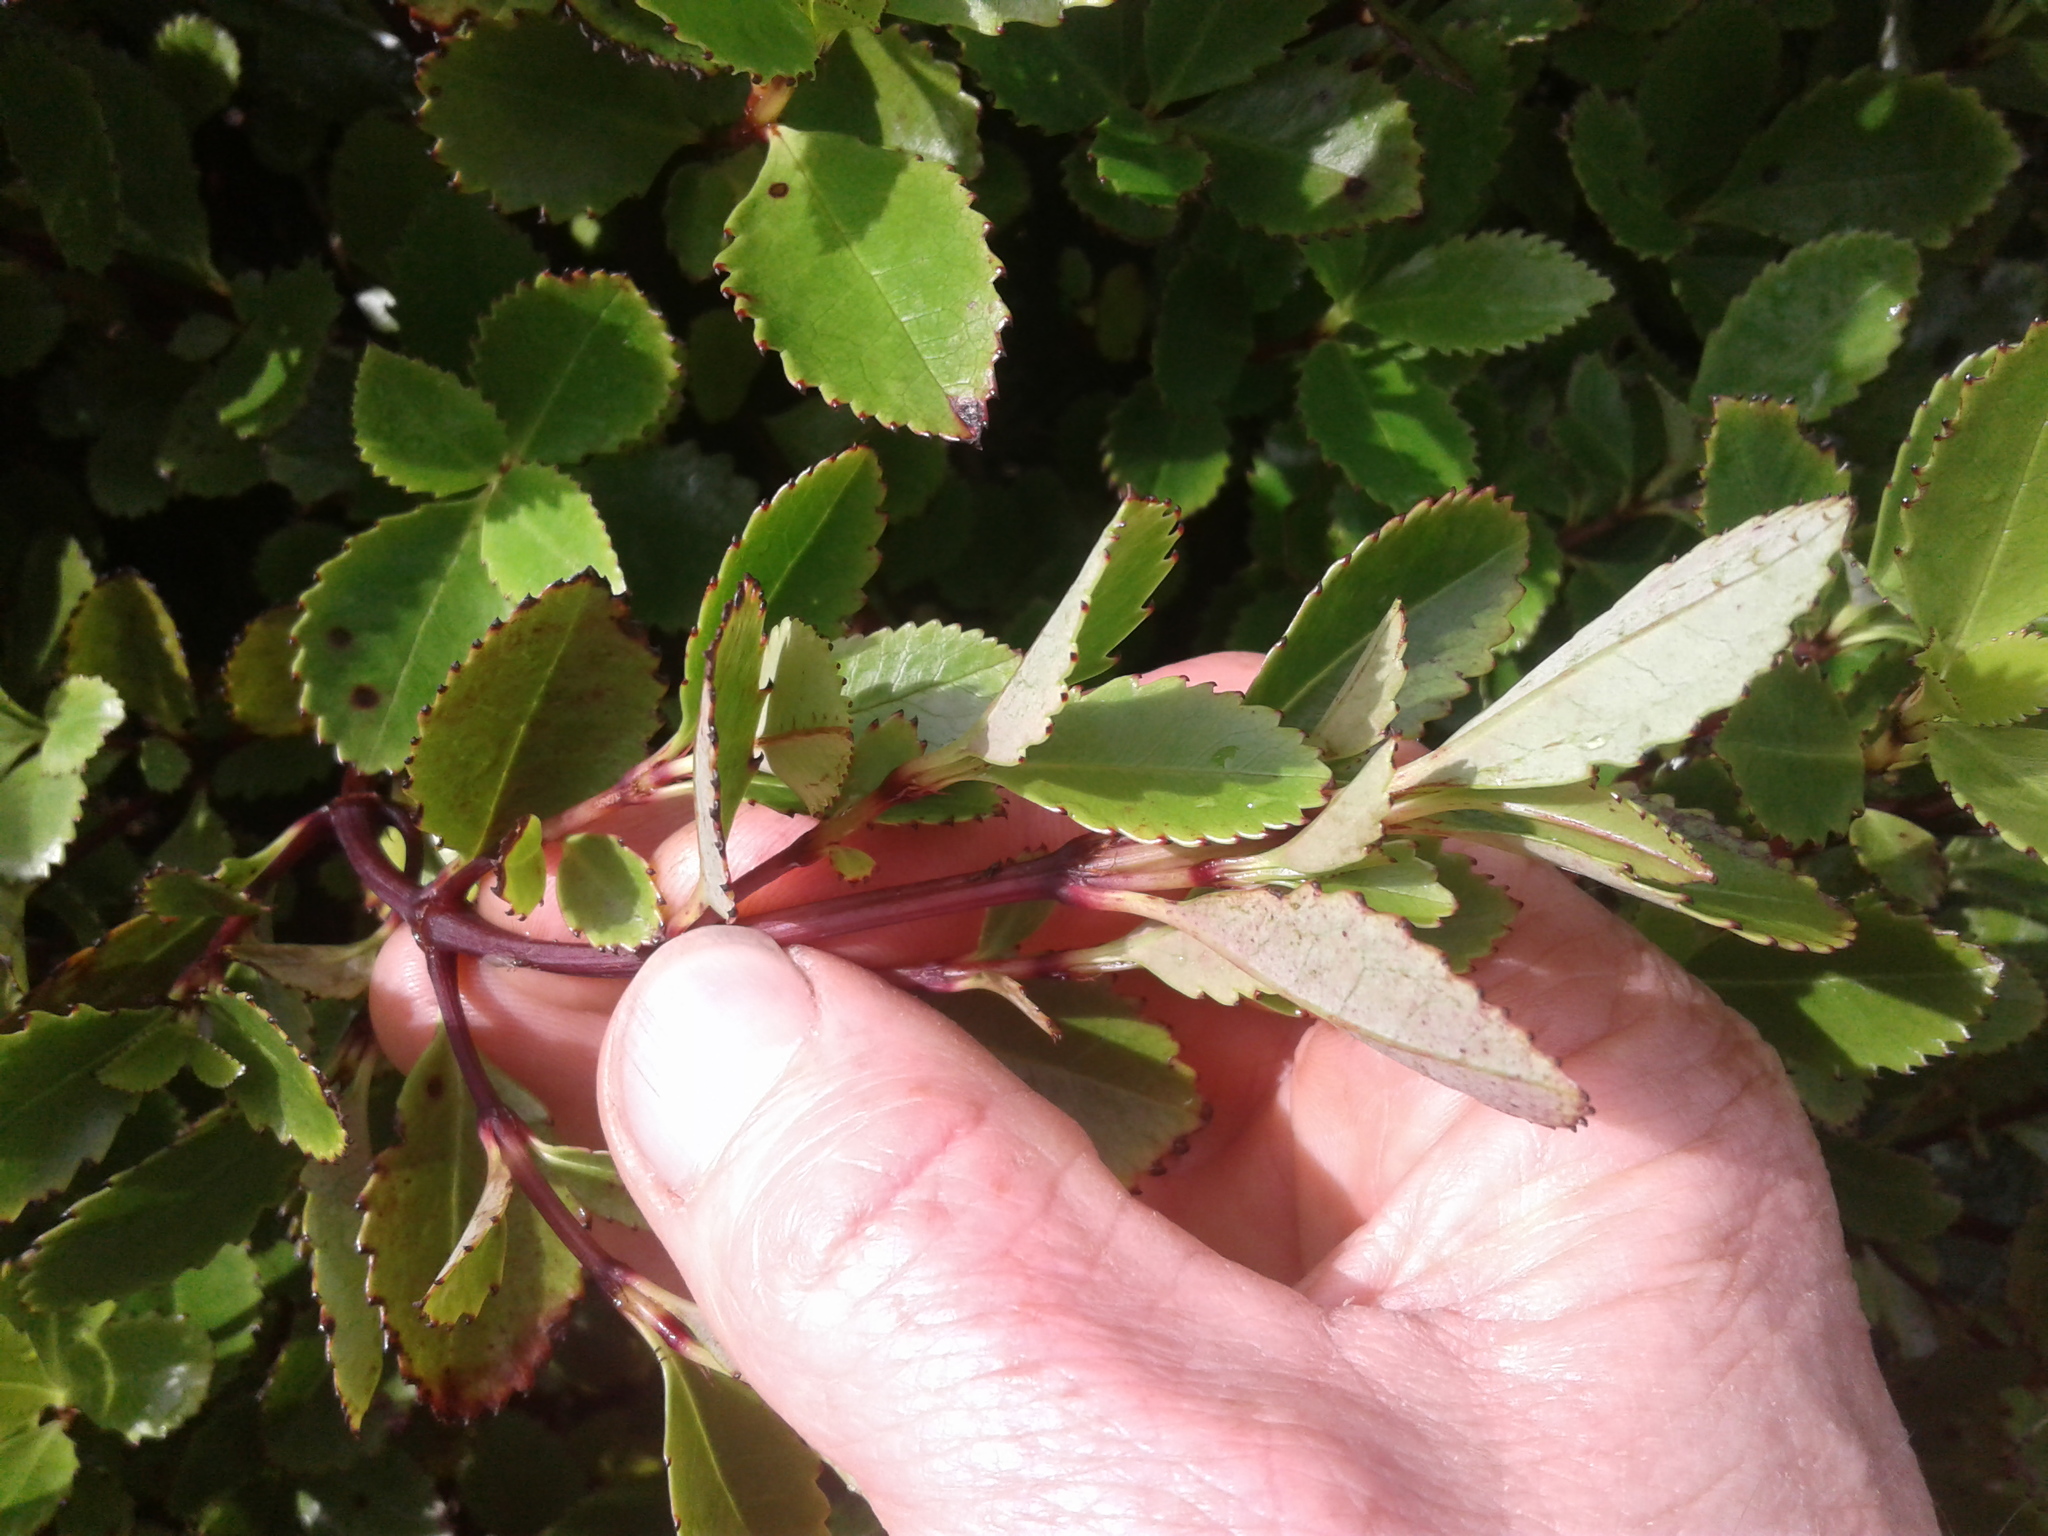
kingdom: Plantae
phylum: Tracheophyta
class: Magnoliopsida
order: Chloranthales
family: Chloranthaceae
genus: Ascarina
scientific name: Ascarina lucida
